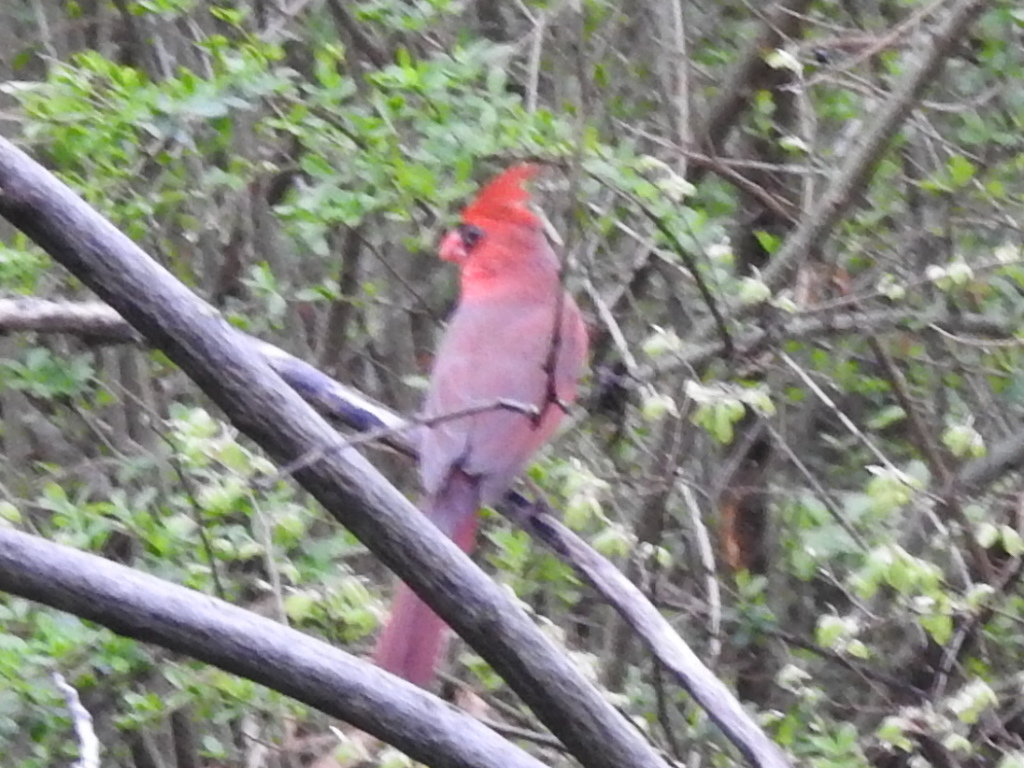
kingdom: Animalia
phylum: Chordata
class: Aves
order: Passeriformes
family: Cardinalidae
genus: Cardinalis
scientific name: Cardinalis cardinalis
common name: Northern cardinal
